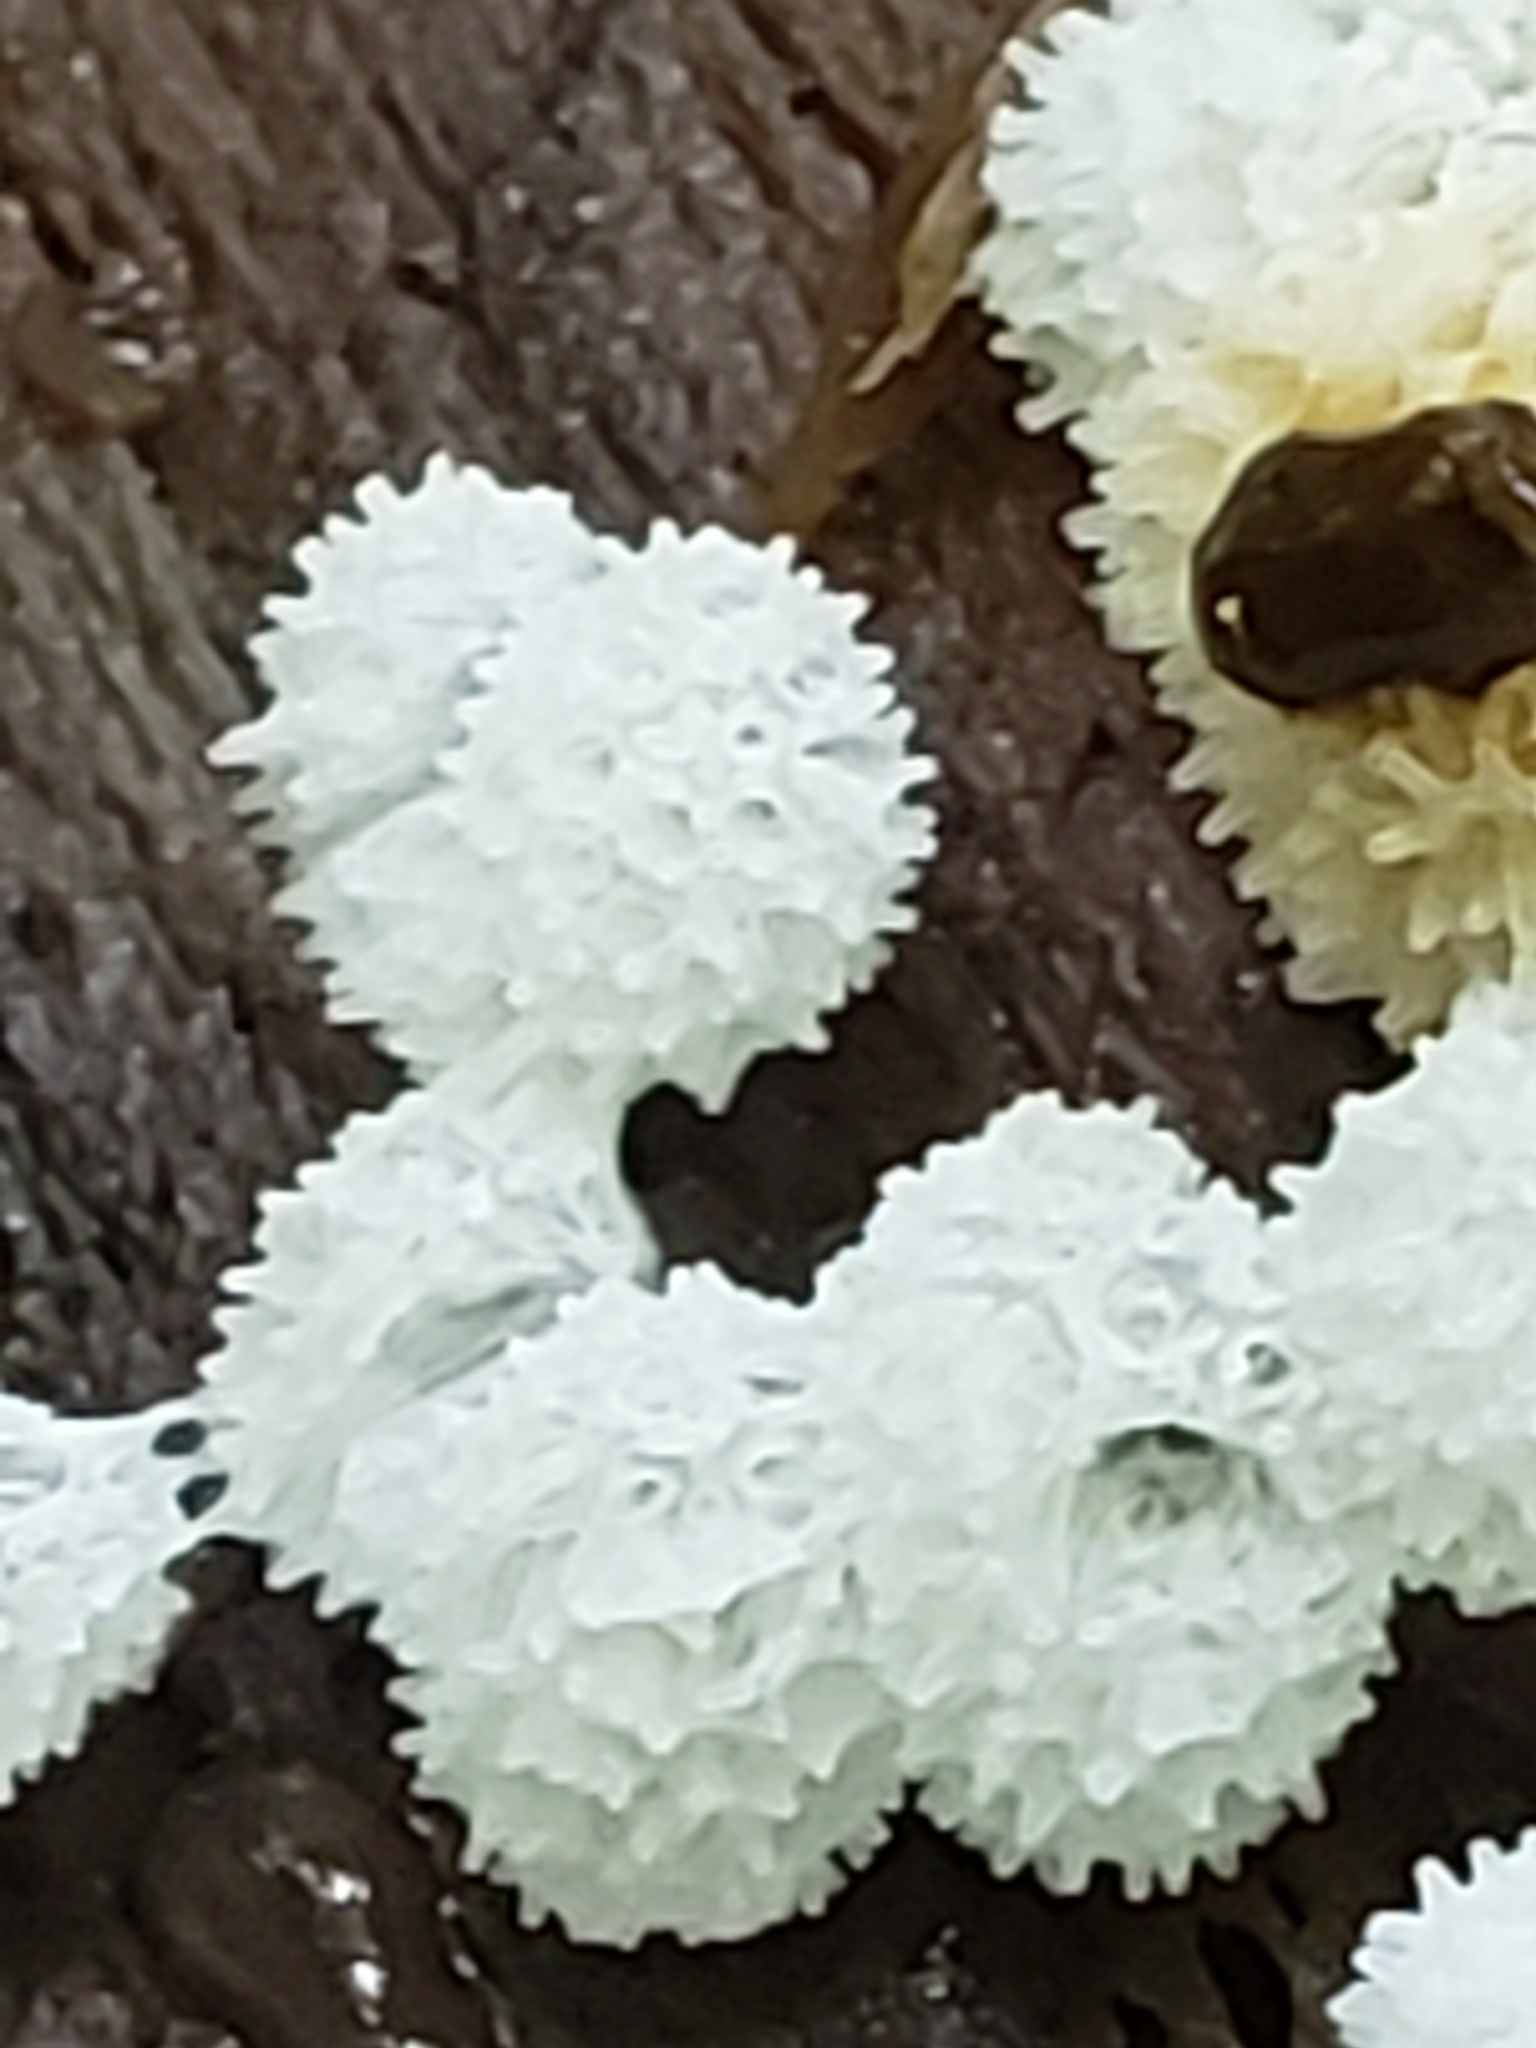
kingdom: Protozoa
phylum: Mycetozoa
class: Protosteliomycetes
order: Ceratiomyxales
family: Ceratiomyxaceae
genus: Ceratiomyxa
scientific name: Ceratiomyxa fruticulosa
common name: Honeycomb coral slime mold
